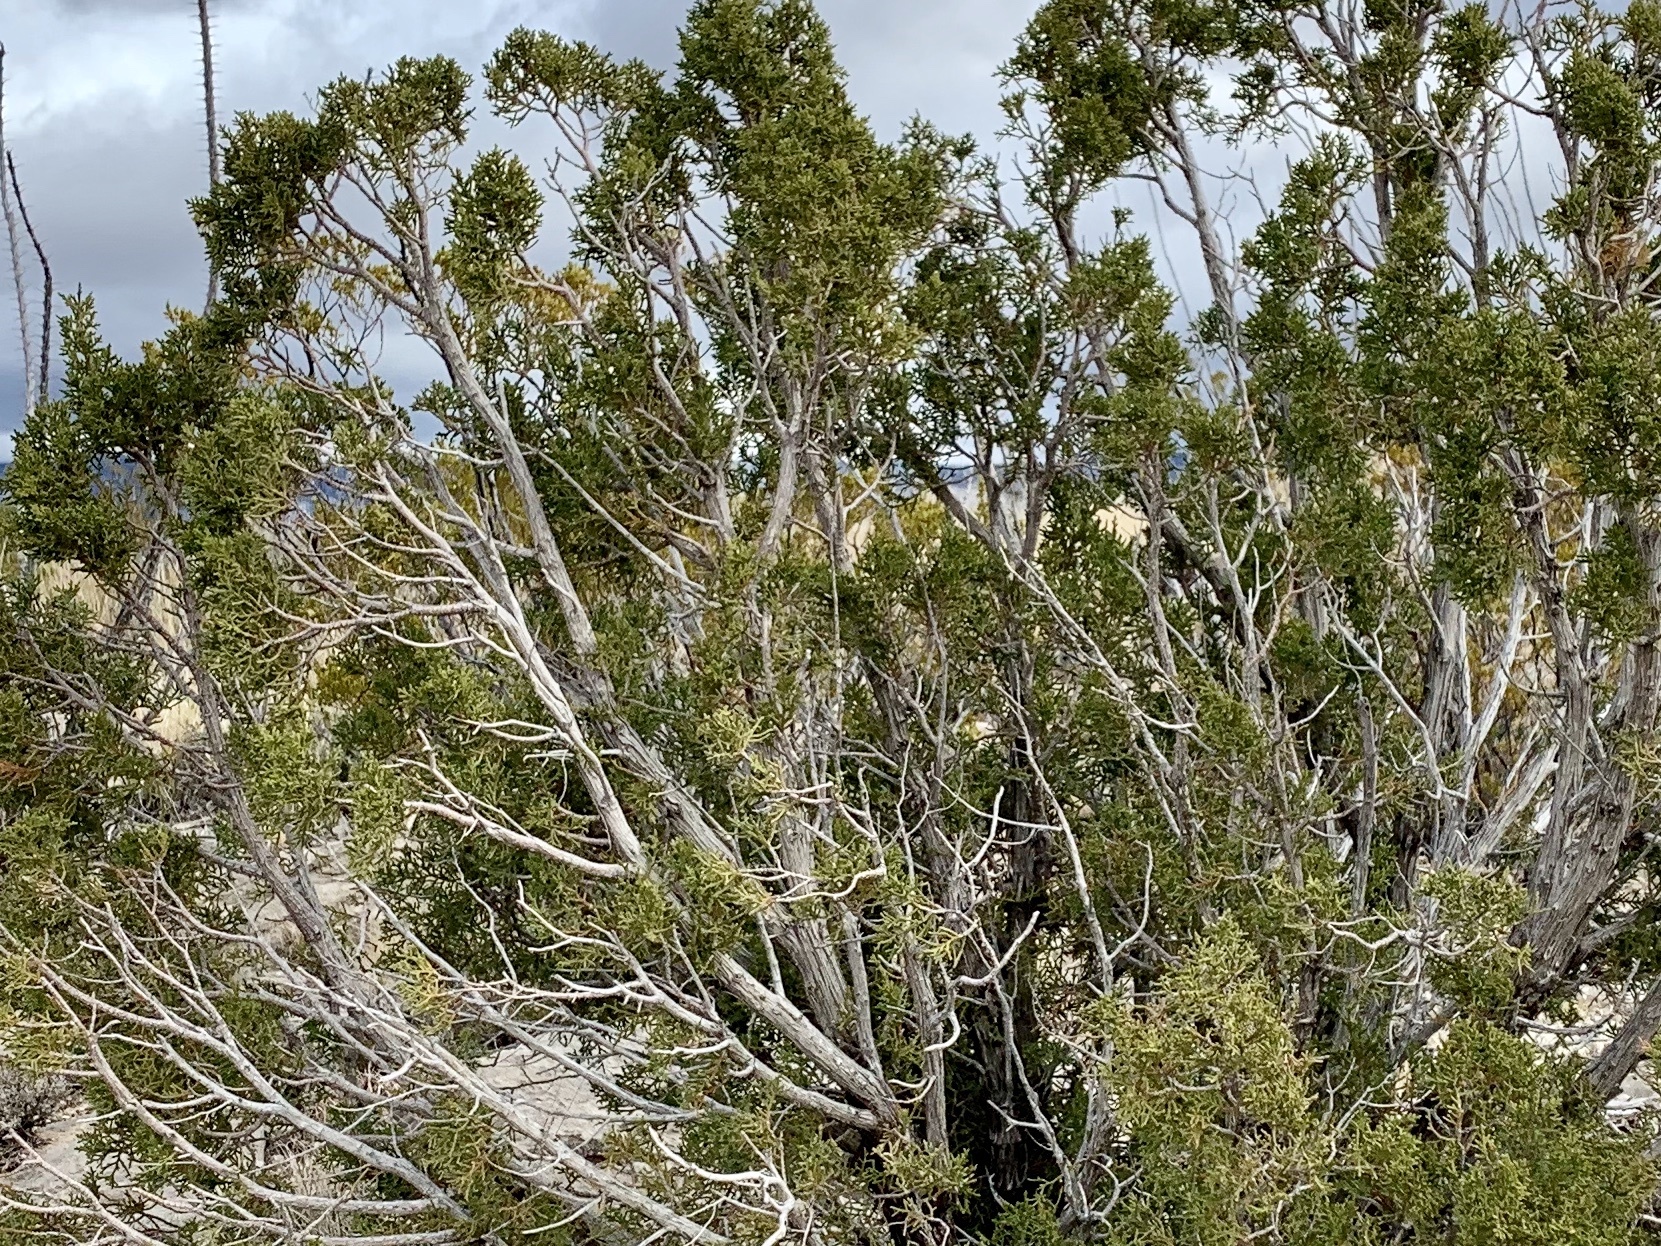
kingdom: Plantae
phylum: Tracheophyta
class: Pinopsida
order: Pinales
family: Cupressaceae
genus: Juniperus
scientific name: Juniperus monosperma
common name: One-seed juniper
